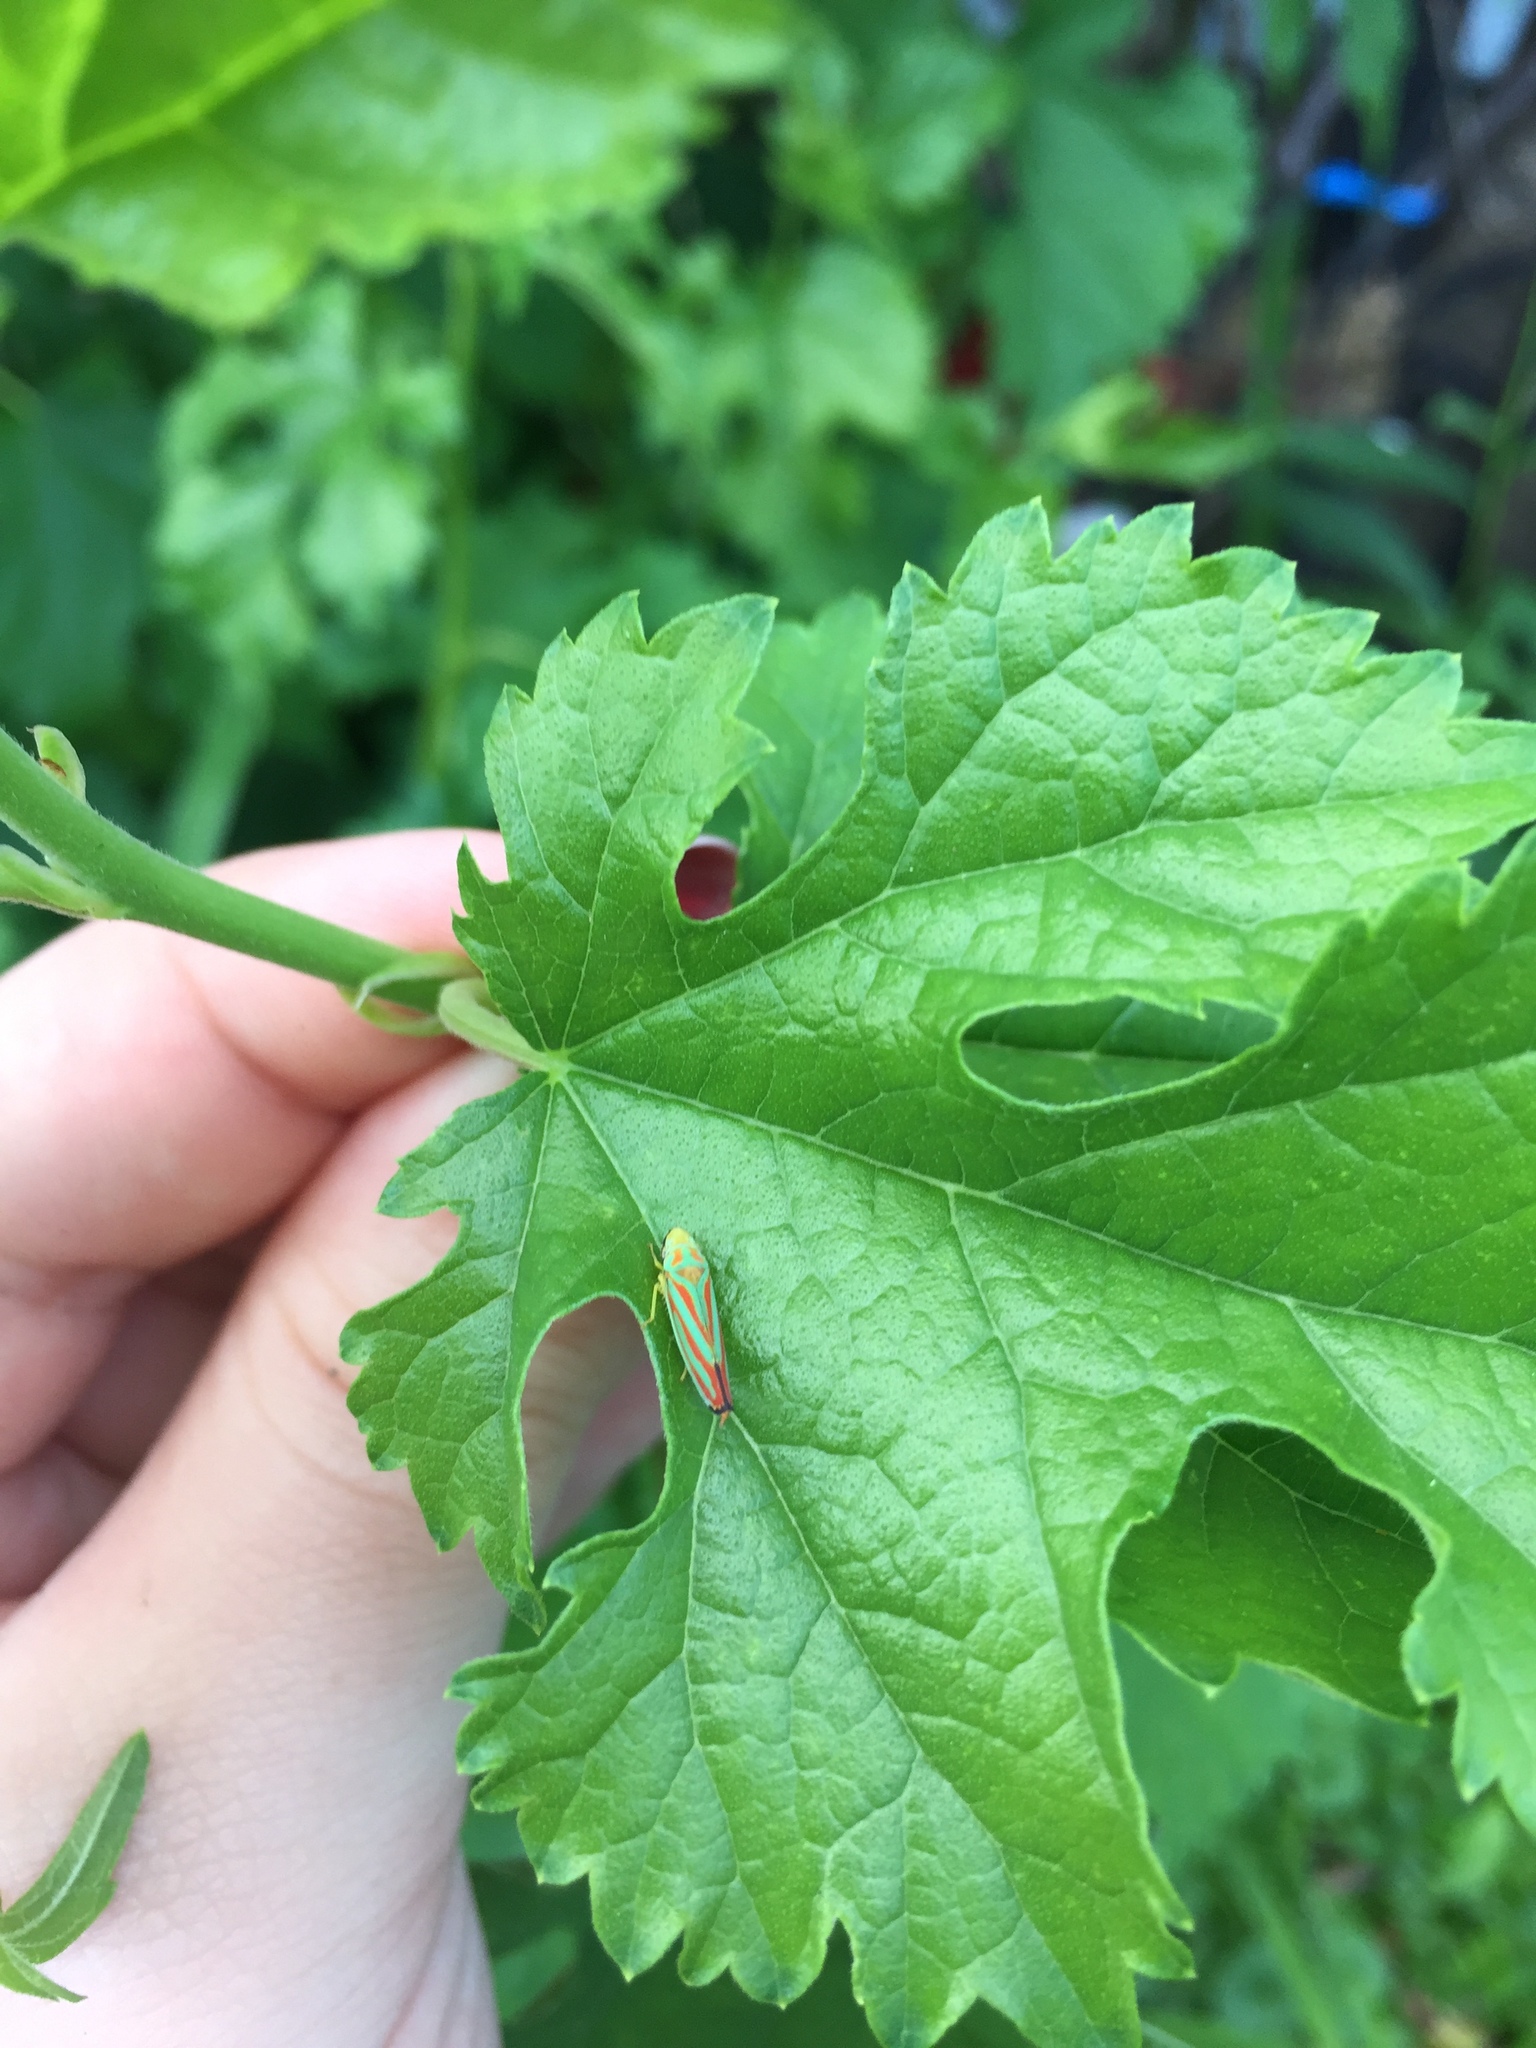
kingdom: Animalia
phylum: Arthropoda
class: Insecta
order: Hemiptera
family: Cicadellidae
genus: Graphocephala
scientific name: Graphocephala coccinea
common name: Candy-striped leafhopper
